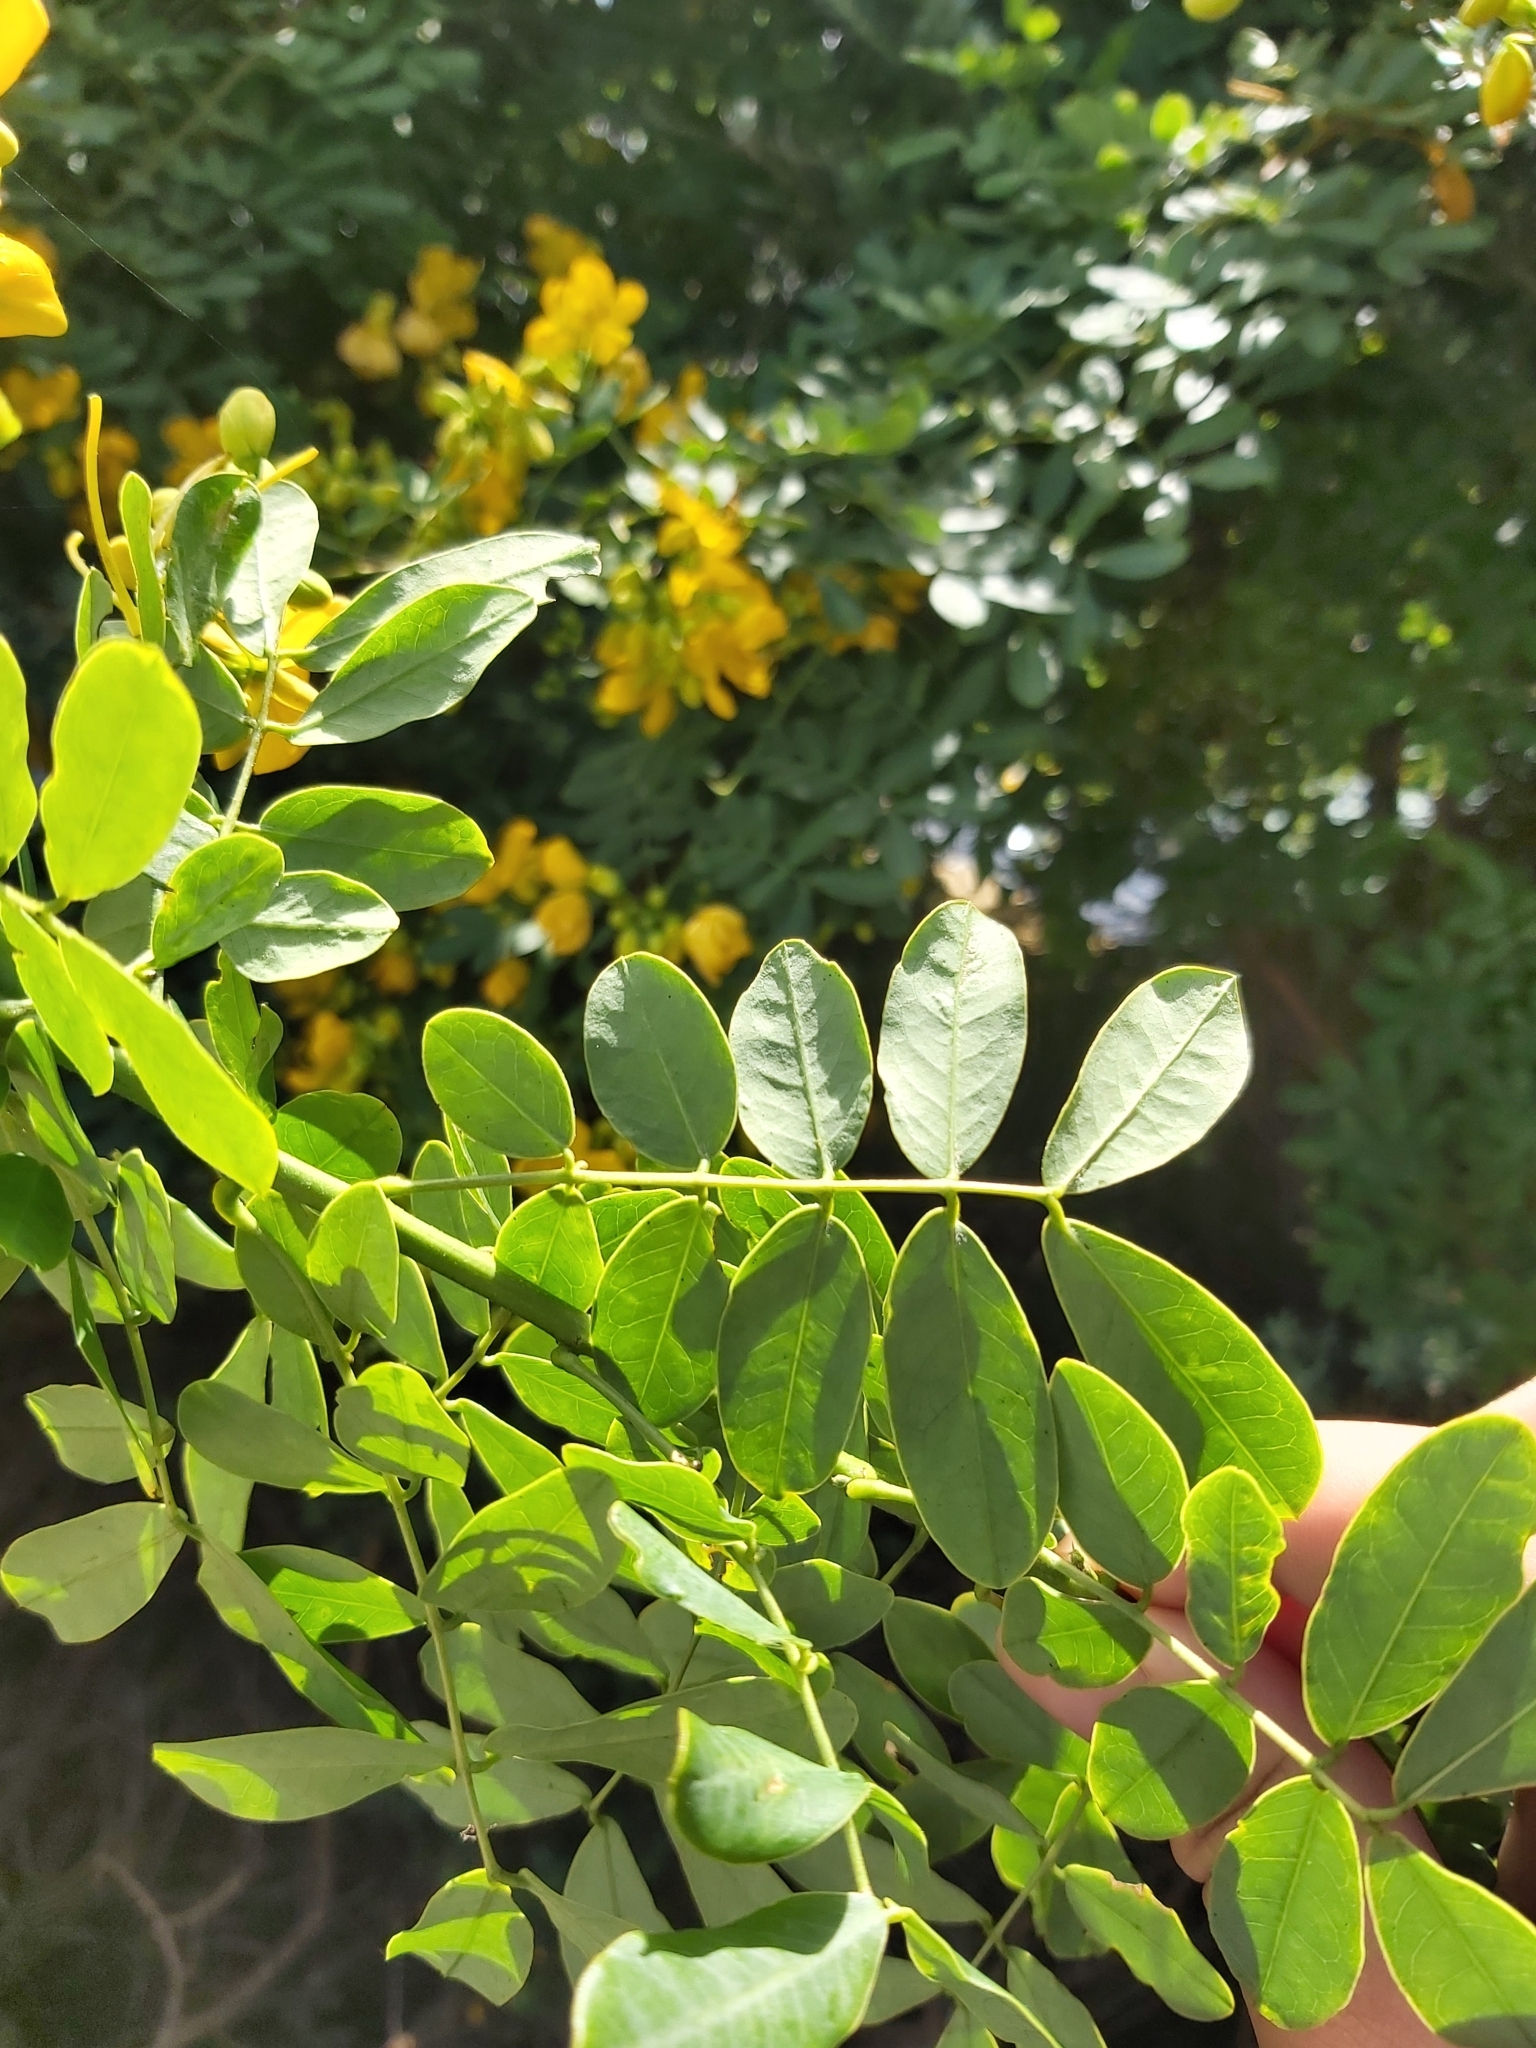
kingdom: Plantae
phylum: Tracheophyta
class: Magnoliopsida
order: Fabales
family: Fabaceae
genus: Senna
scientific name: Senna pendula
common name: Easter cassia
